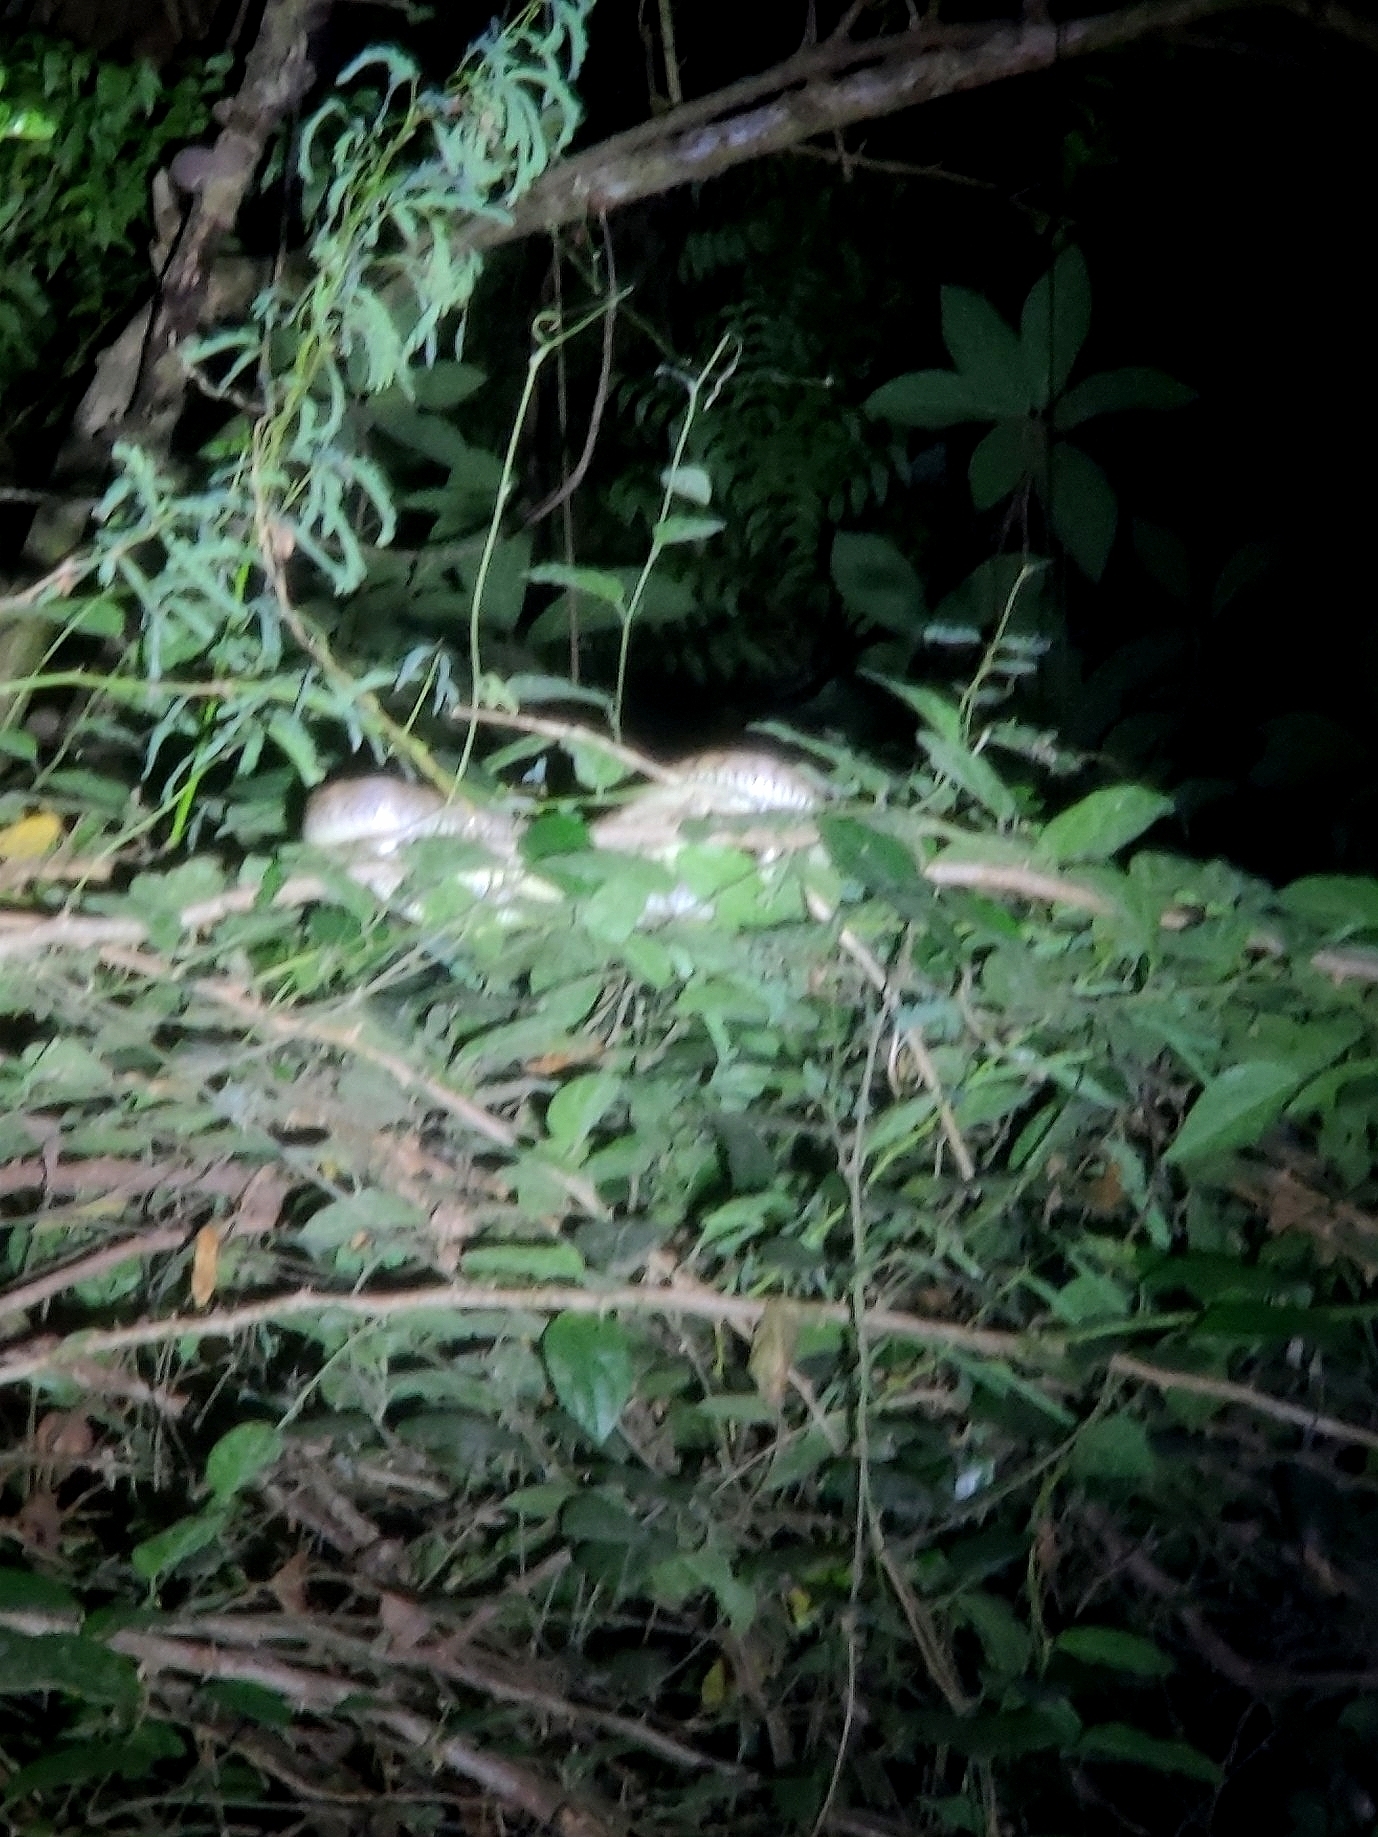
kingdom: Animalia
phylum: Chordata
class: Squamata
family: Colubridae
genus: Ptyas
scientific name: Ptyas mucosa
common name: Oriental ratsnake
